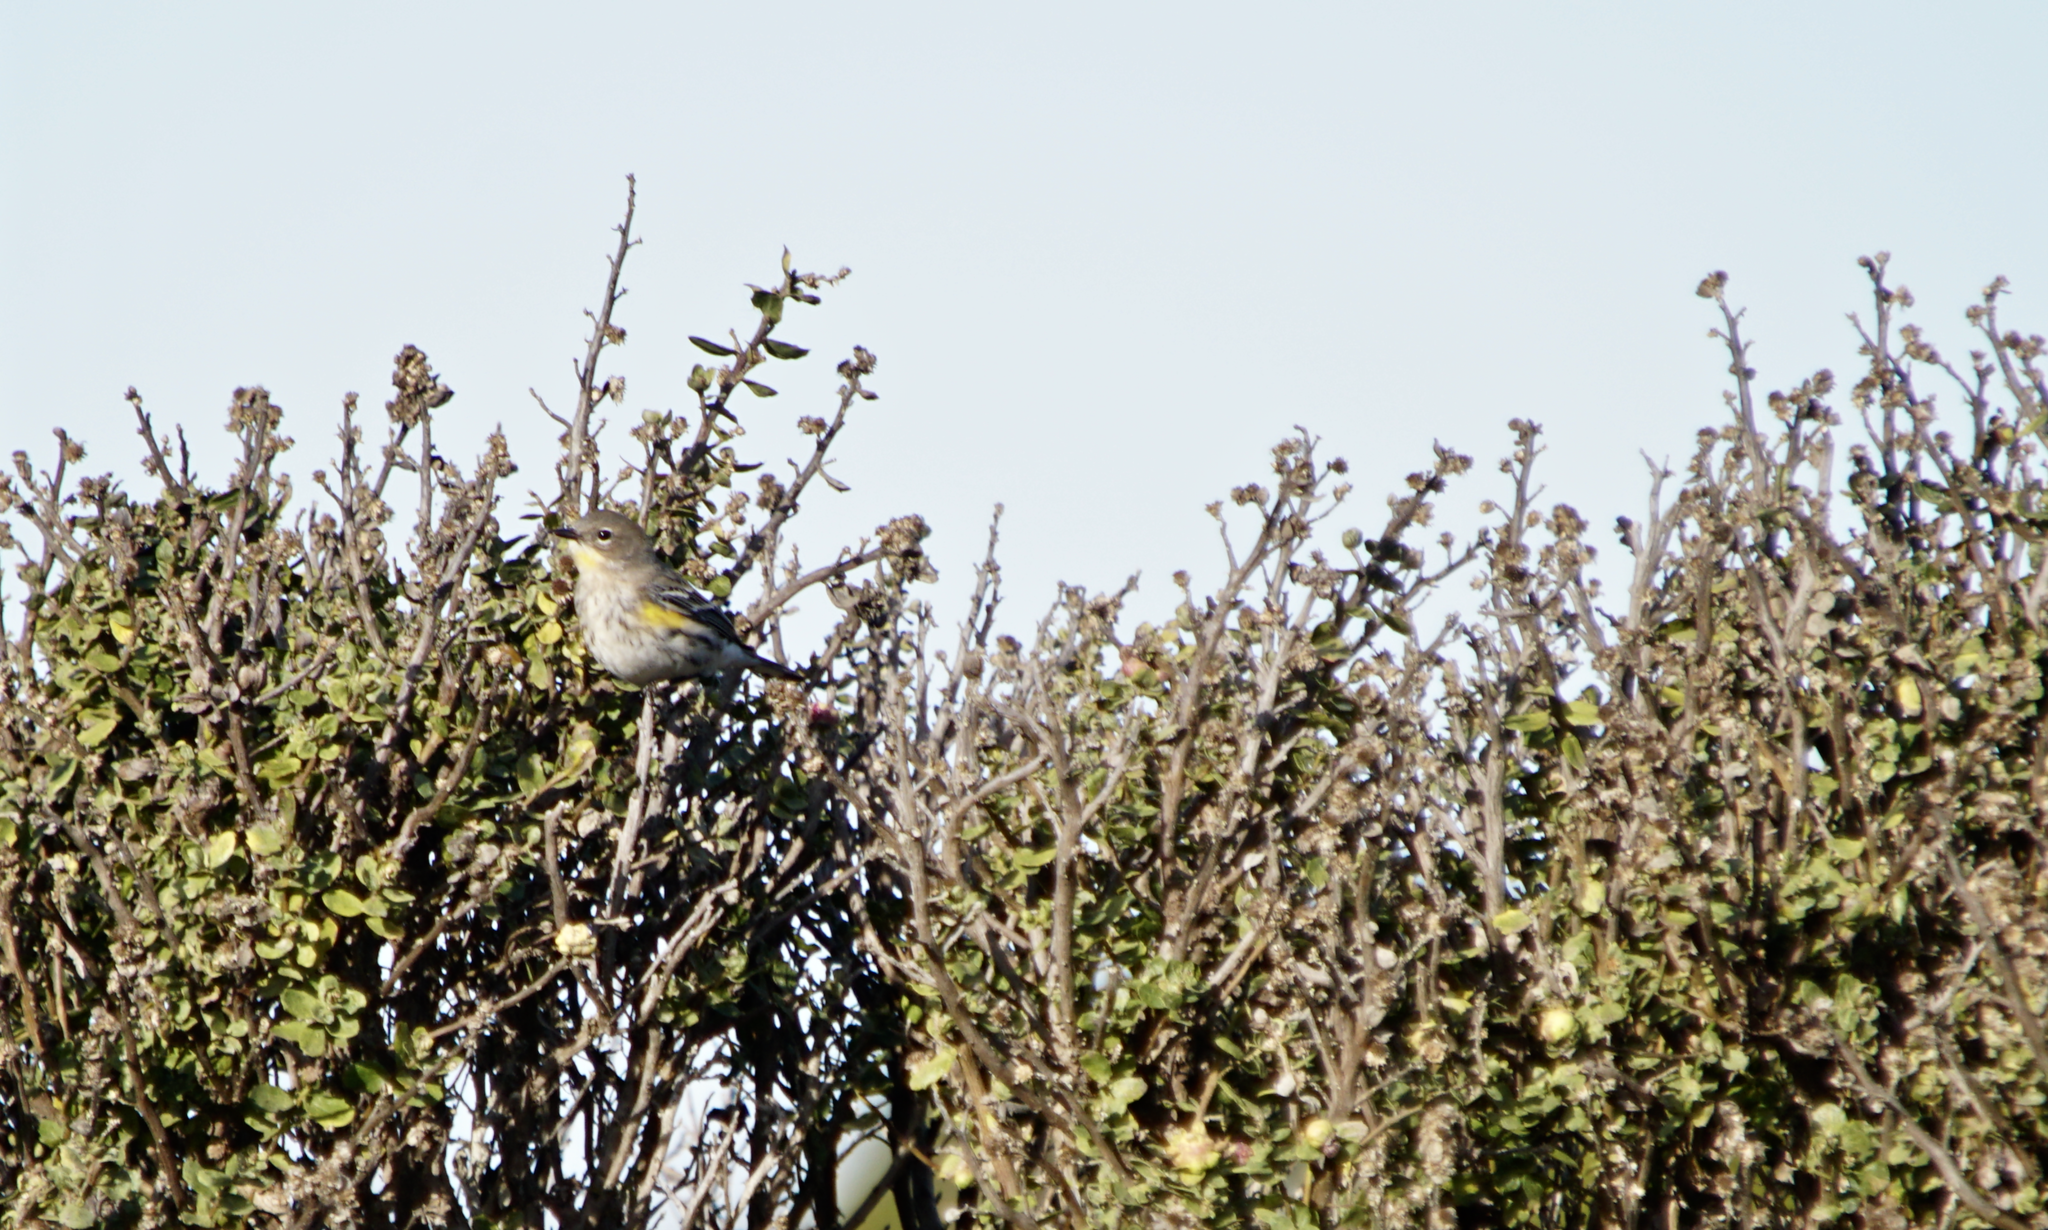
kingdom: Animalia
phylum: Chordata
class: Aves
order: Passeriformes
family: Parulidae
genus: Setophaga
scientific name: Setophaga coronata
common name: Myrtle warbler
